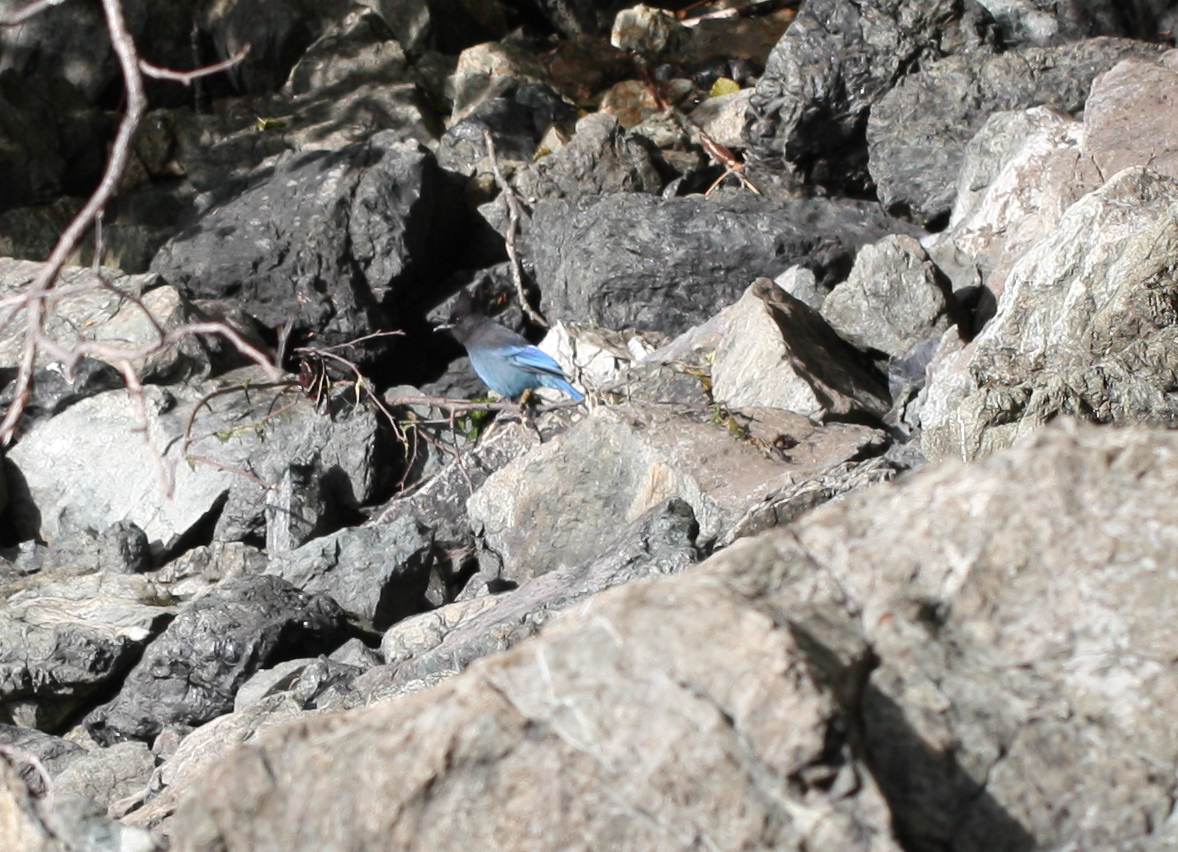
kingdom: Animalia
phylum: Chordata
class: Aves
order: Passeriformes
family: Corvidae
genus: Cyanocitta
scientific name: Cyanocitta stelleri
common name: Steller's jay
